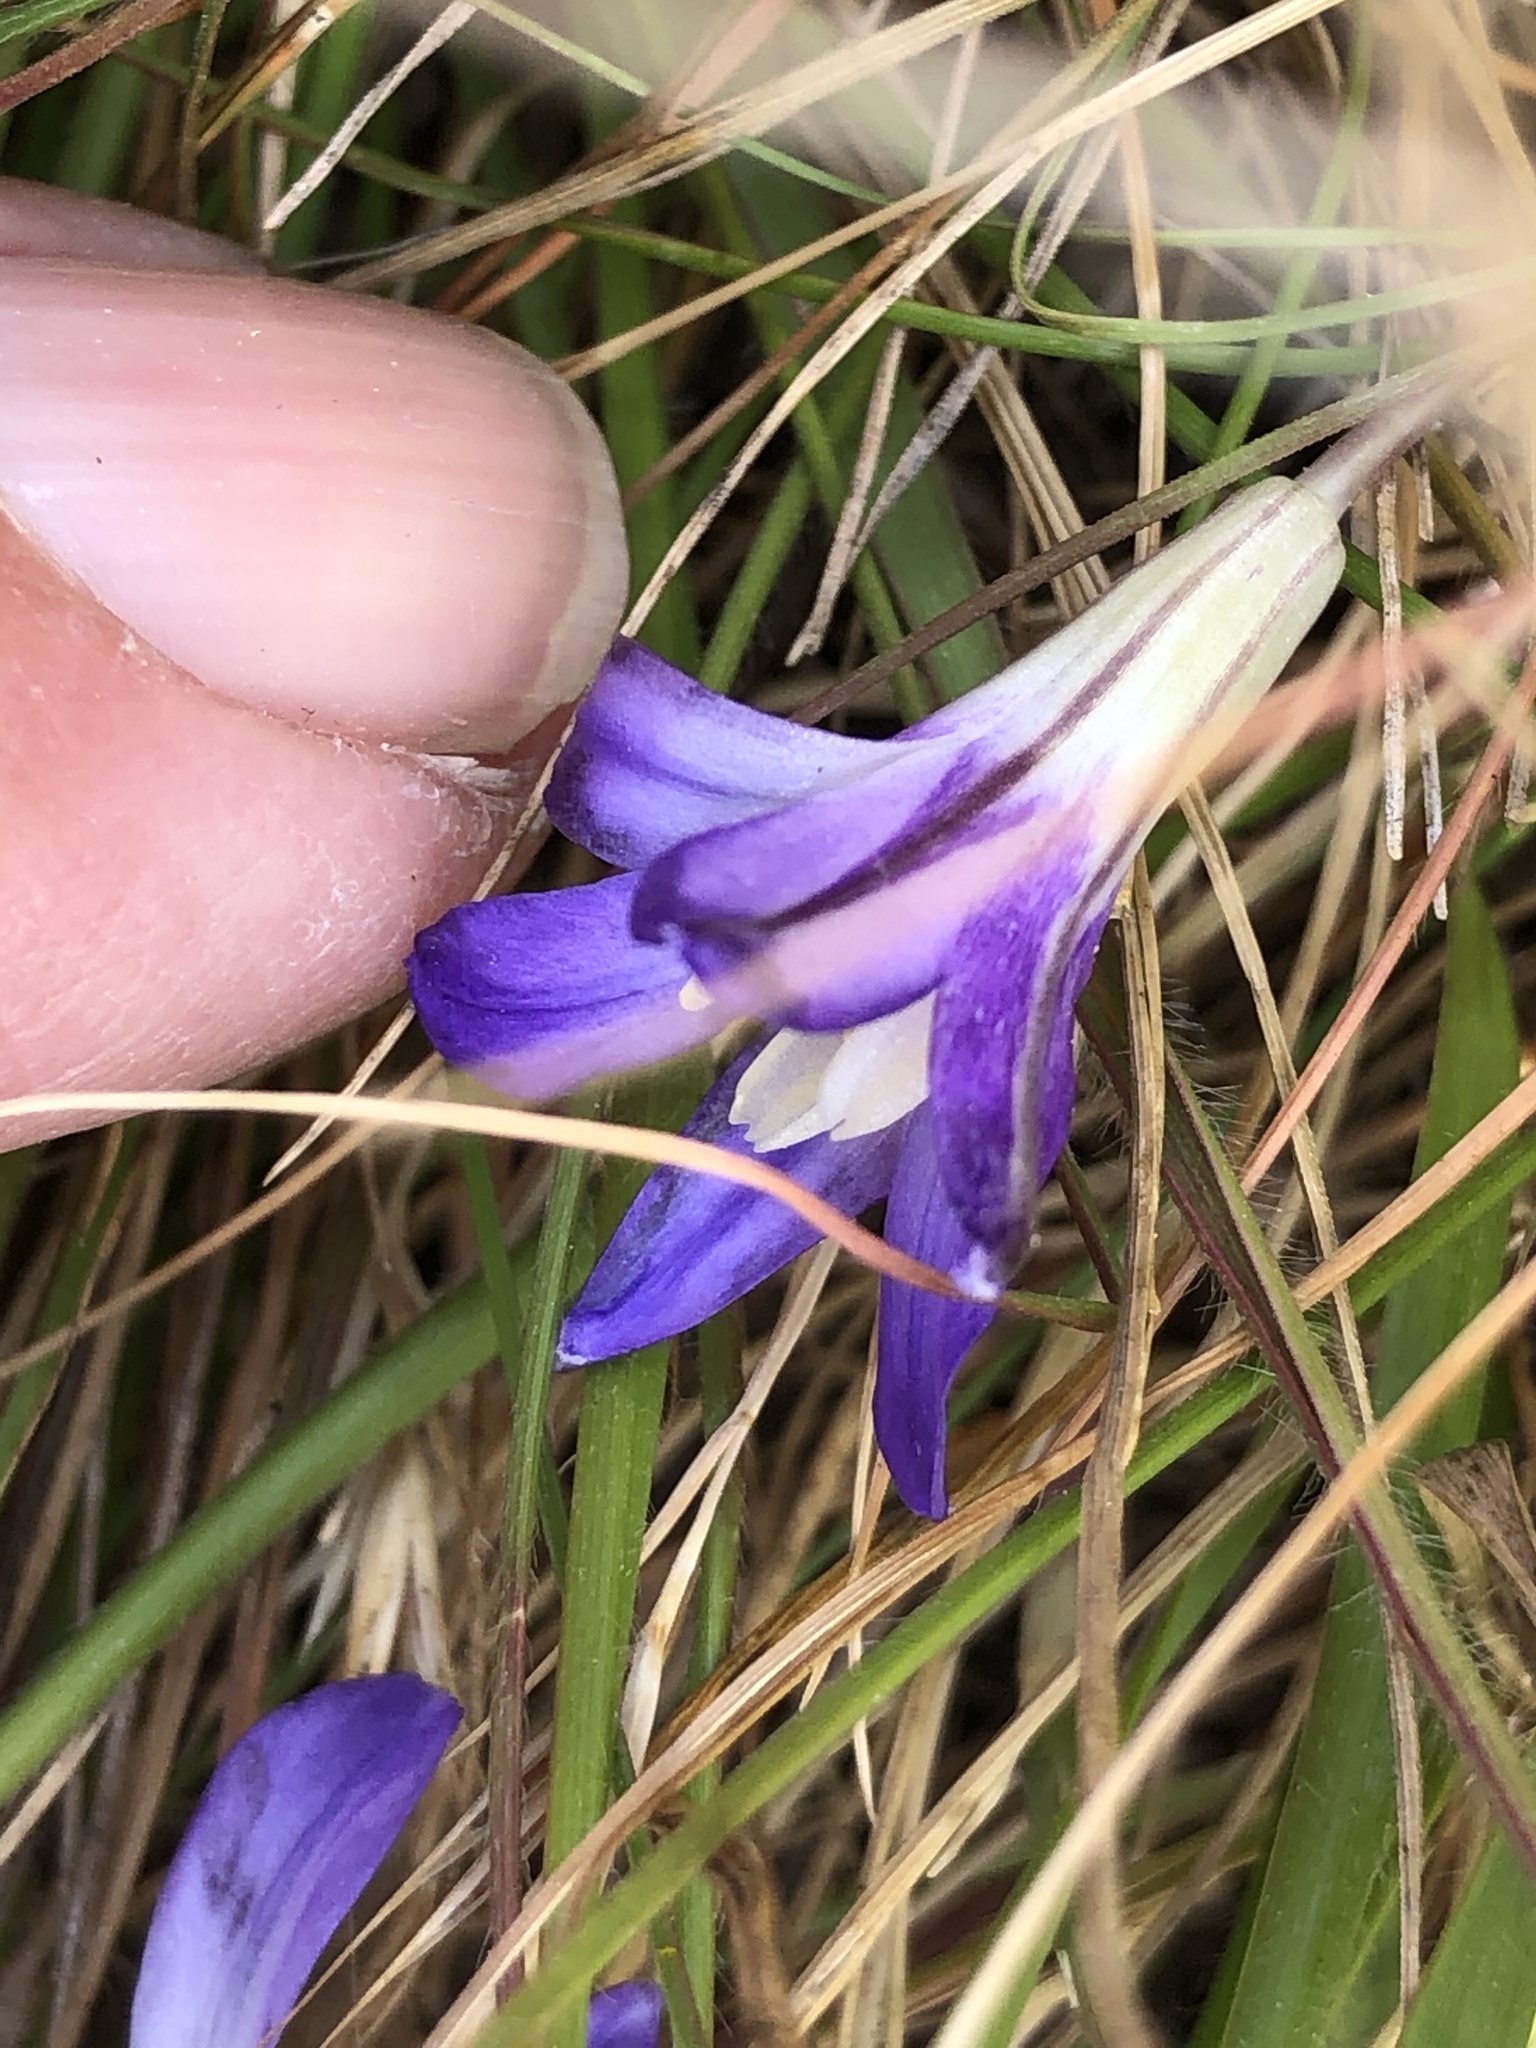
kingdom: Plantae
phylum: Tracheophyta
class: Liliopsida
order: Asparagales
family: Asparagaceae
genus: Brodiaea
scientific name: Brodiaea terrestris
